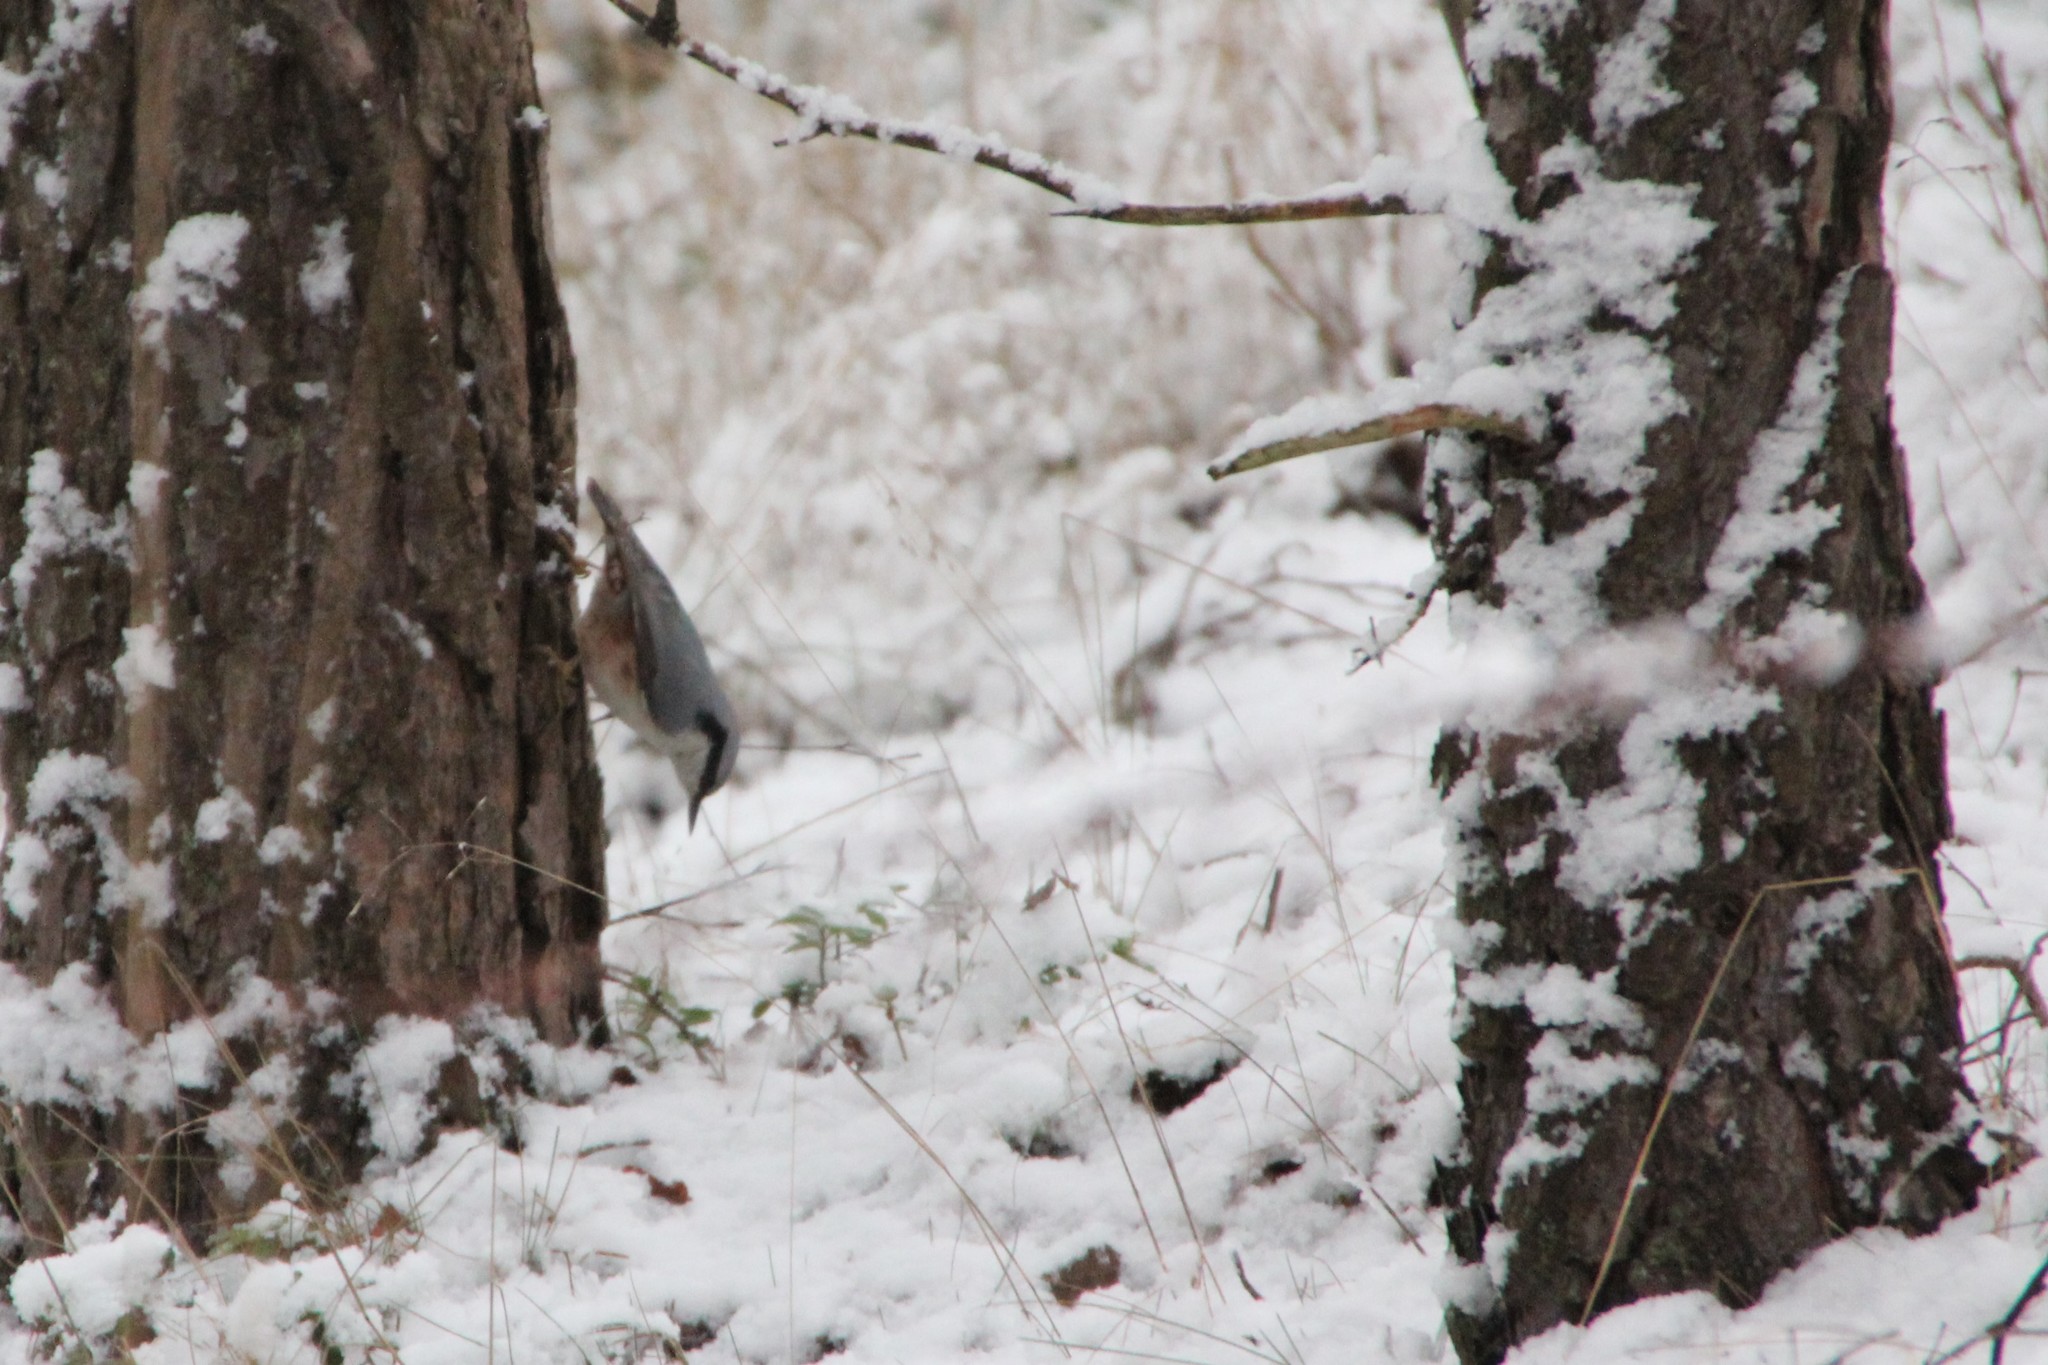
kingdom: Animalia
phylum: Chordata
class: Aves
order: Passeriformes
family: Sittidae
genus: Sitta
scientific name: Sitta europaea
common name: Eurasian nuthatch
